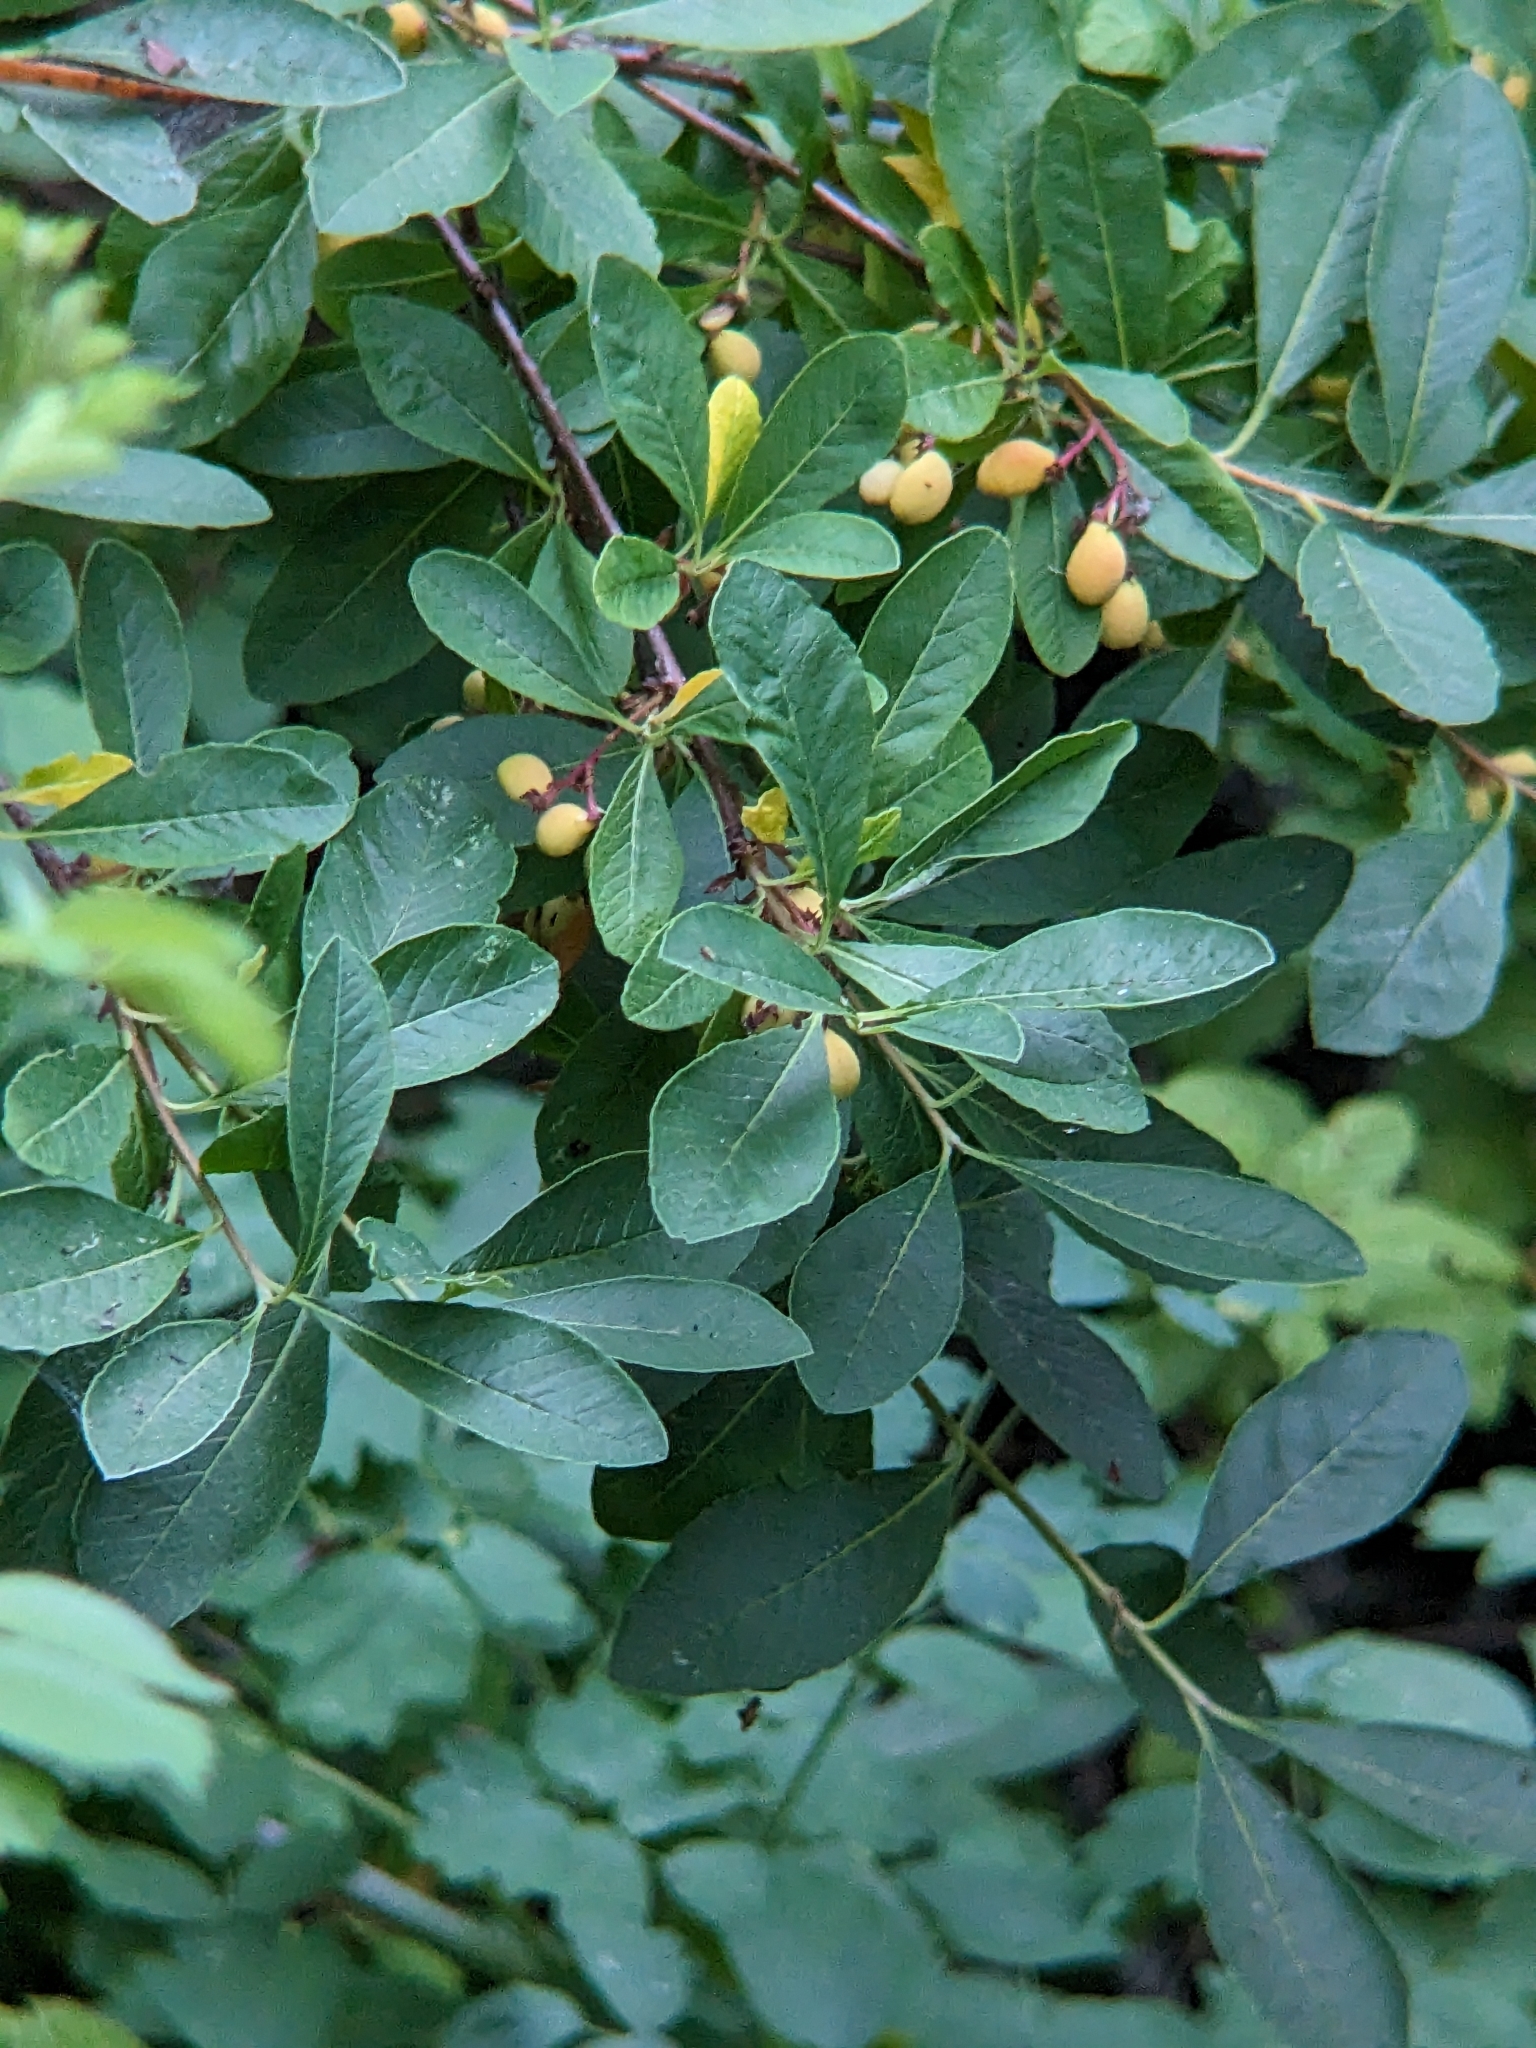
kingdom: Plantae
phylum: Tracheophyta
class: Magnoliopsida
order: Rosales
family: Rosaceae
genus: Oemleria
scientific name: Oemleria cerasiformis
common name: Osoberry
